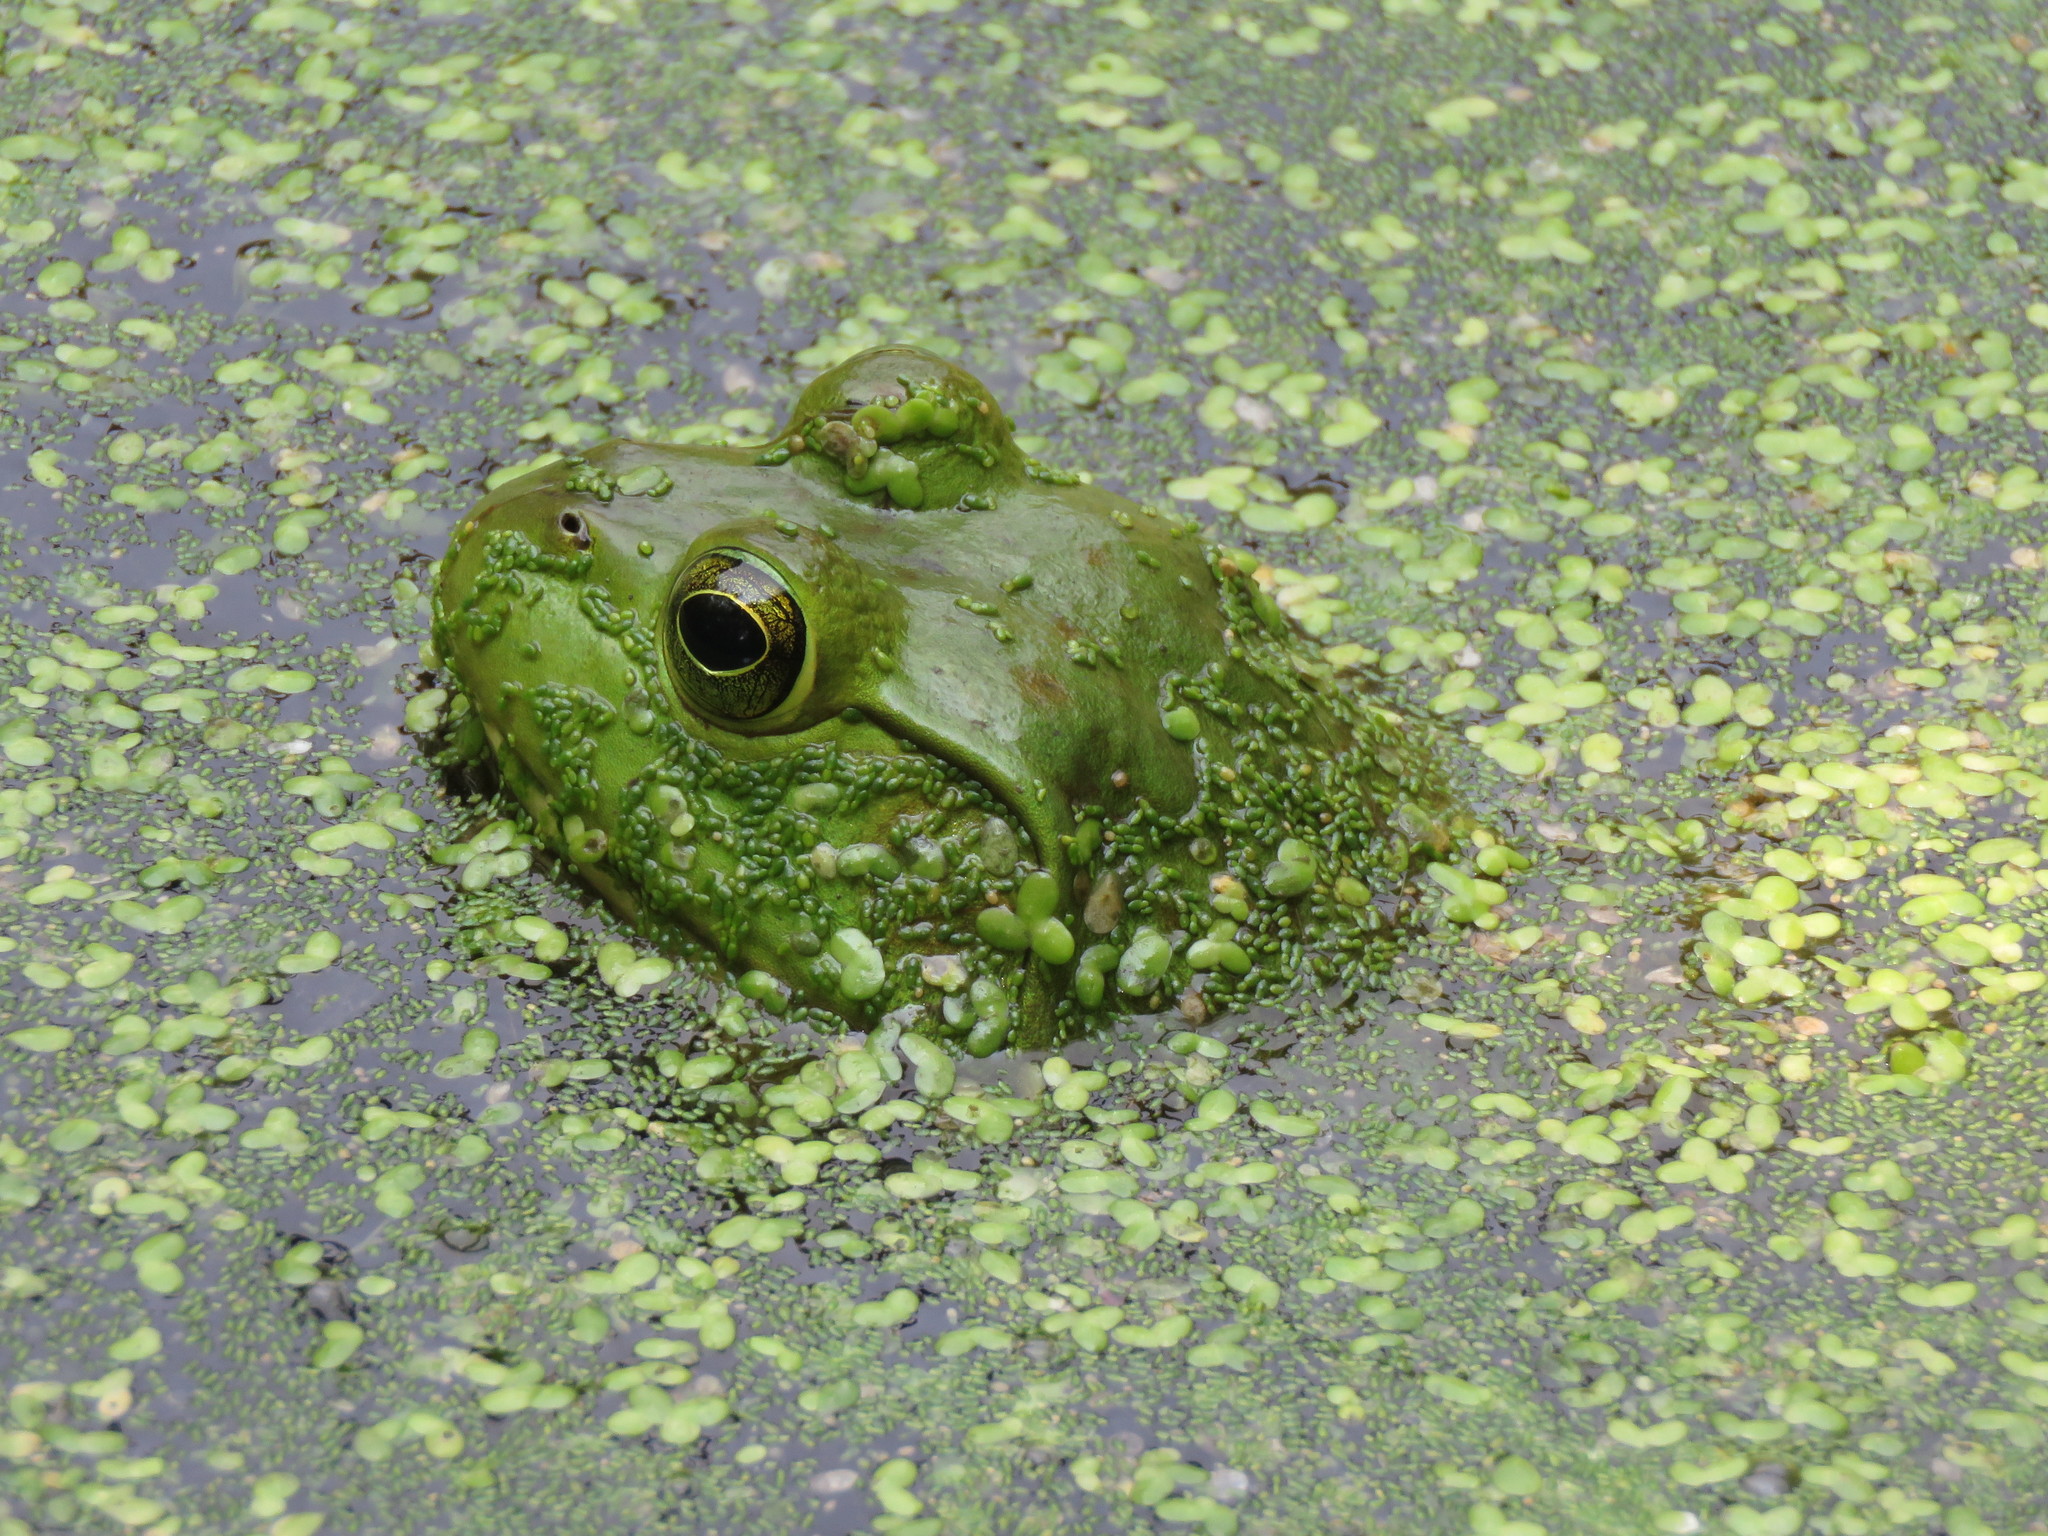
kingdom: Animalia
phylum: Chordata
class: Amphibia
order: Anura
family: Ranidae
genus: Lithobates
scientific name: Lithobates catesbeianus
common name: American bullfrog
